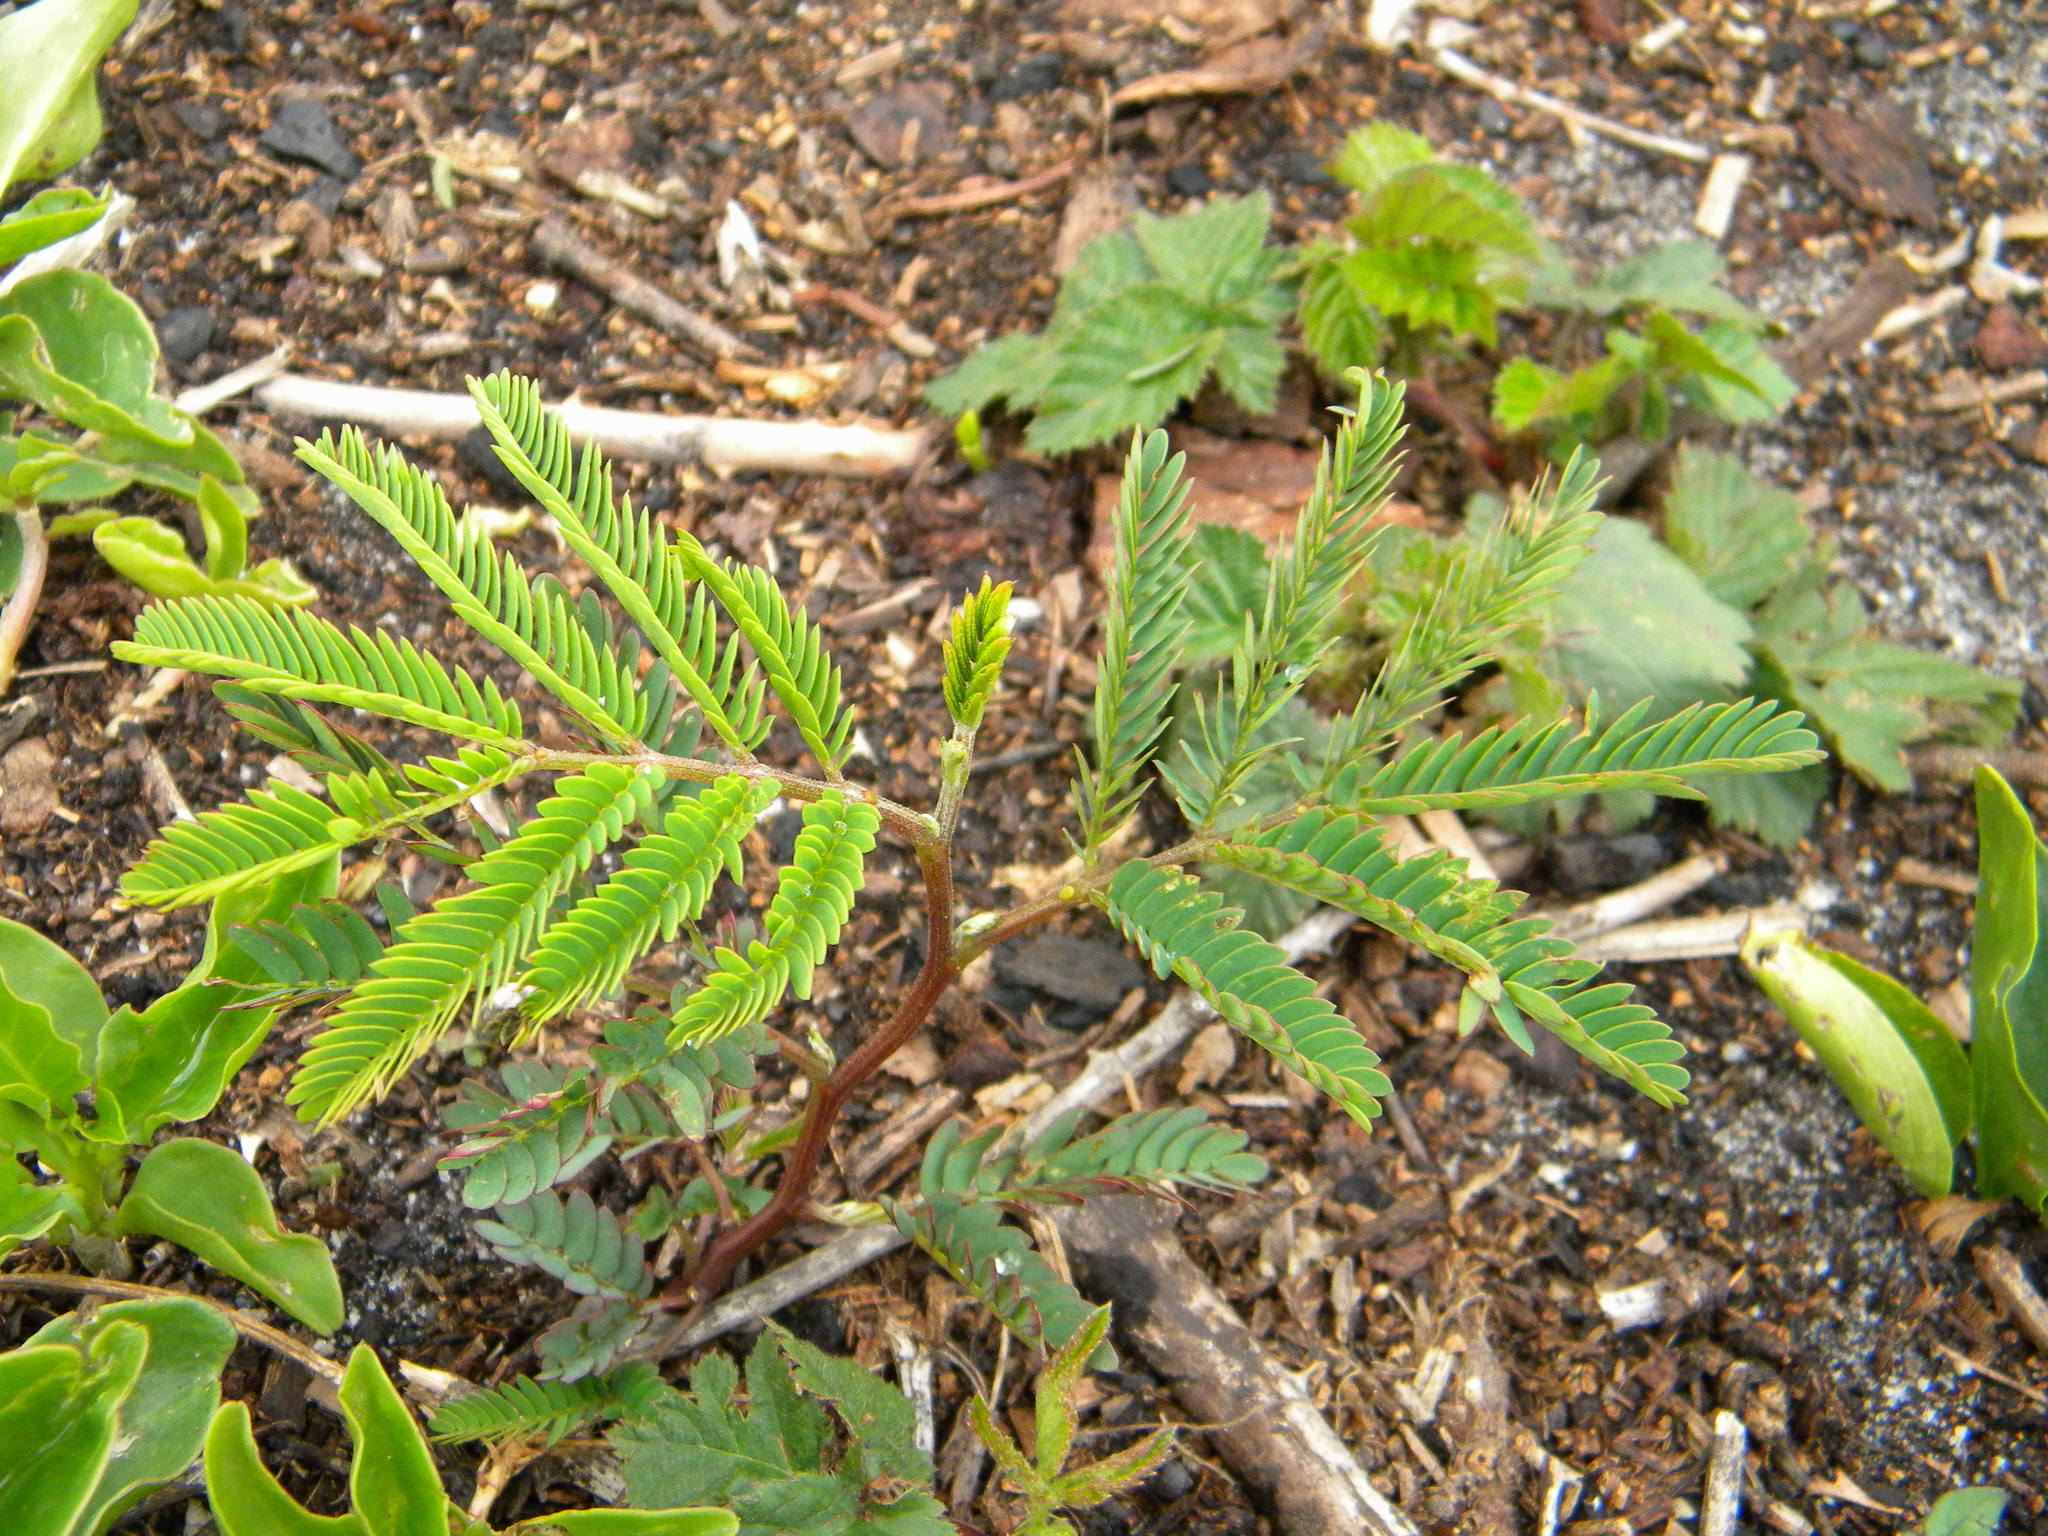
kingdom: Plantae
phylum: Tracheophyta
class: Magnoliopsida
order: Fabales
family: Fabaceae
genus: Paraserianthes
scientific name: Paraserianthes lophantha
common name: Plume albizia
